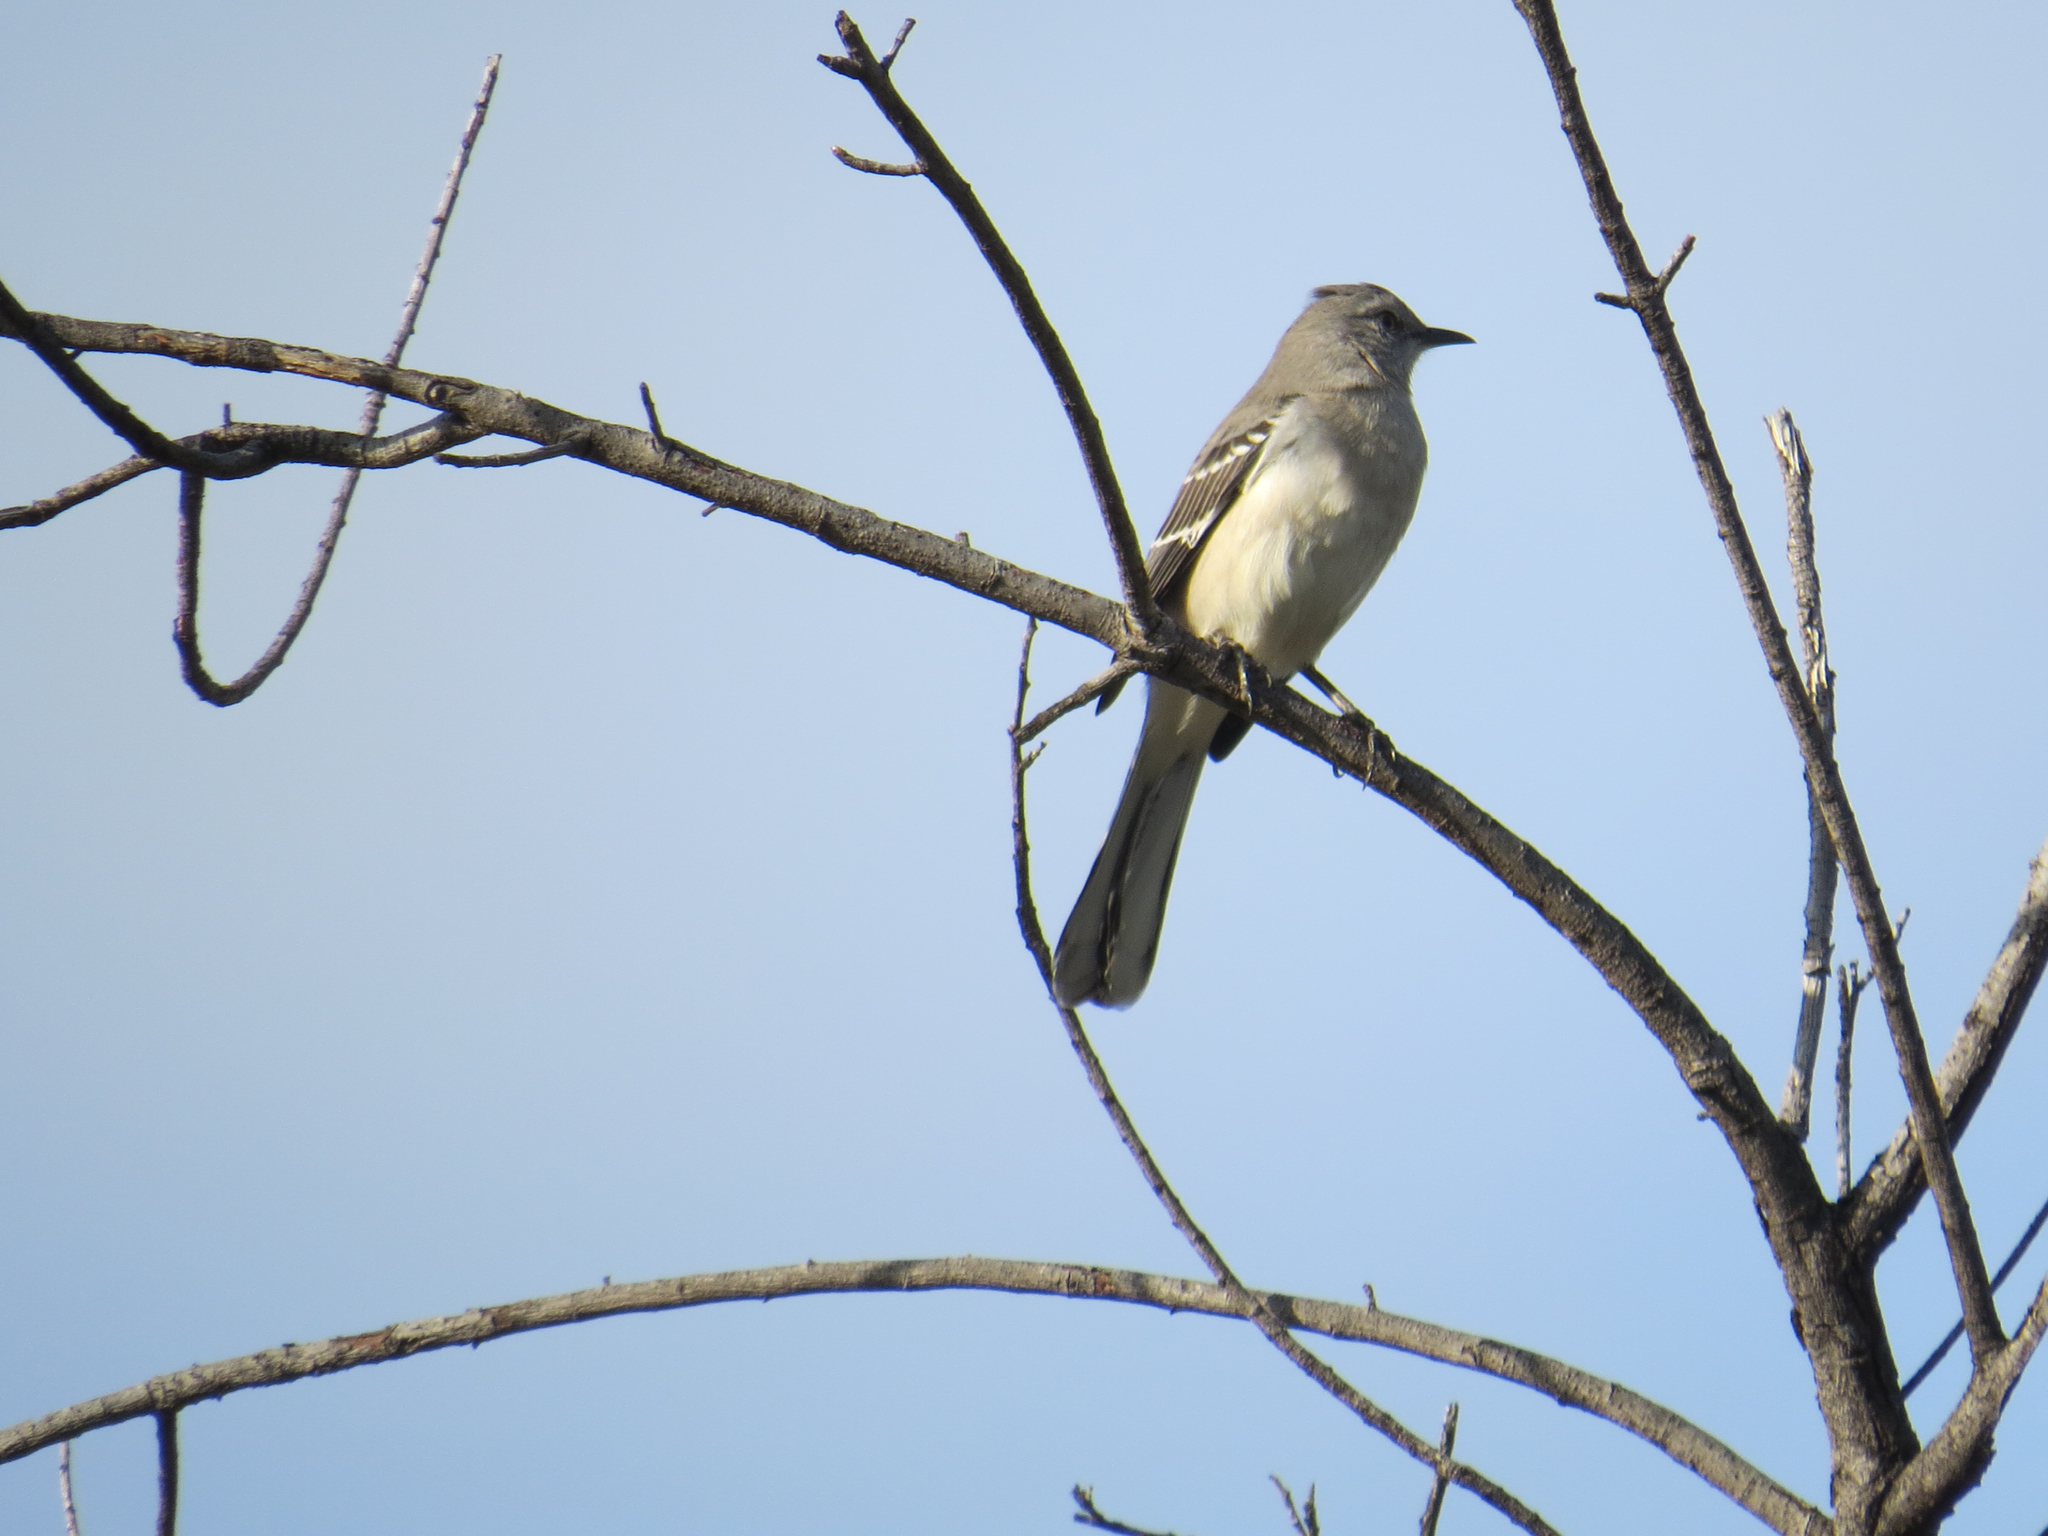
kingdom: Animalia
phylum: Chordata
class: Aves
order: Passeriformes
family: Mimidae
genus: Mimus
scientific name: Mimus polyglottos
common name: Northern mockingbird
